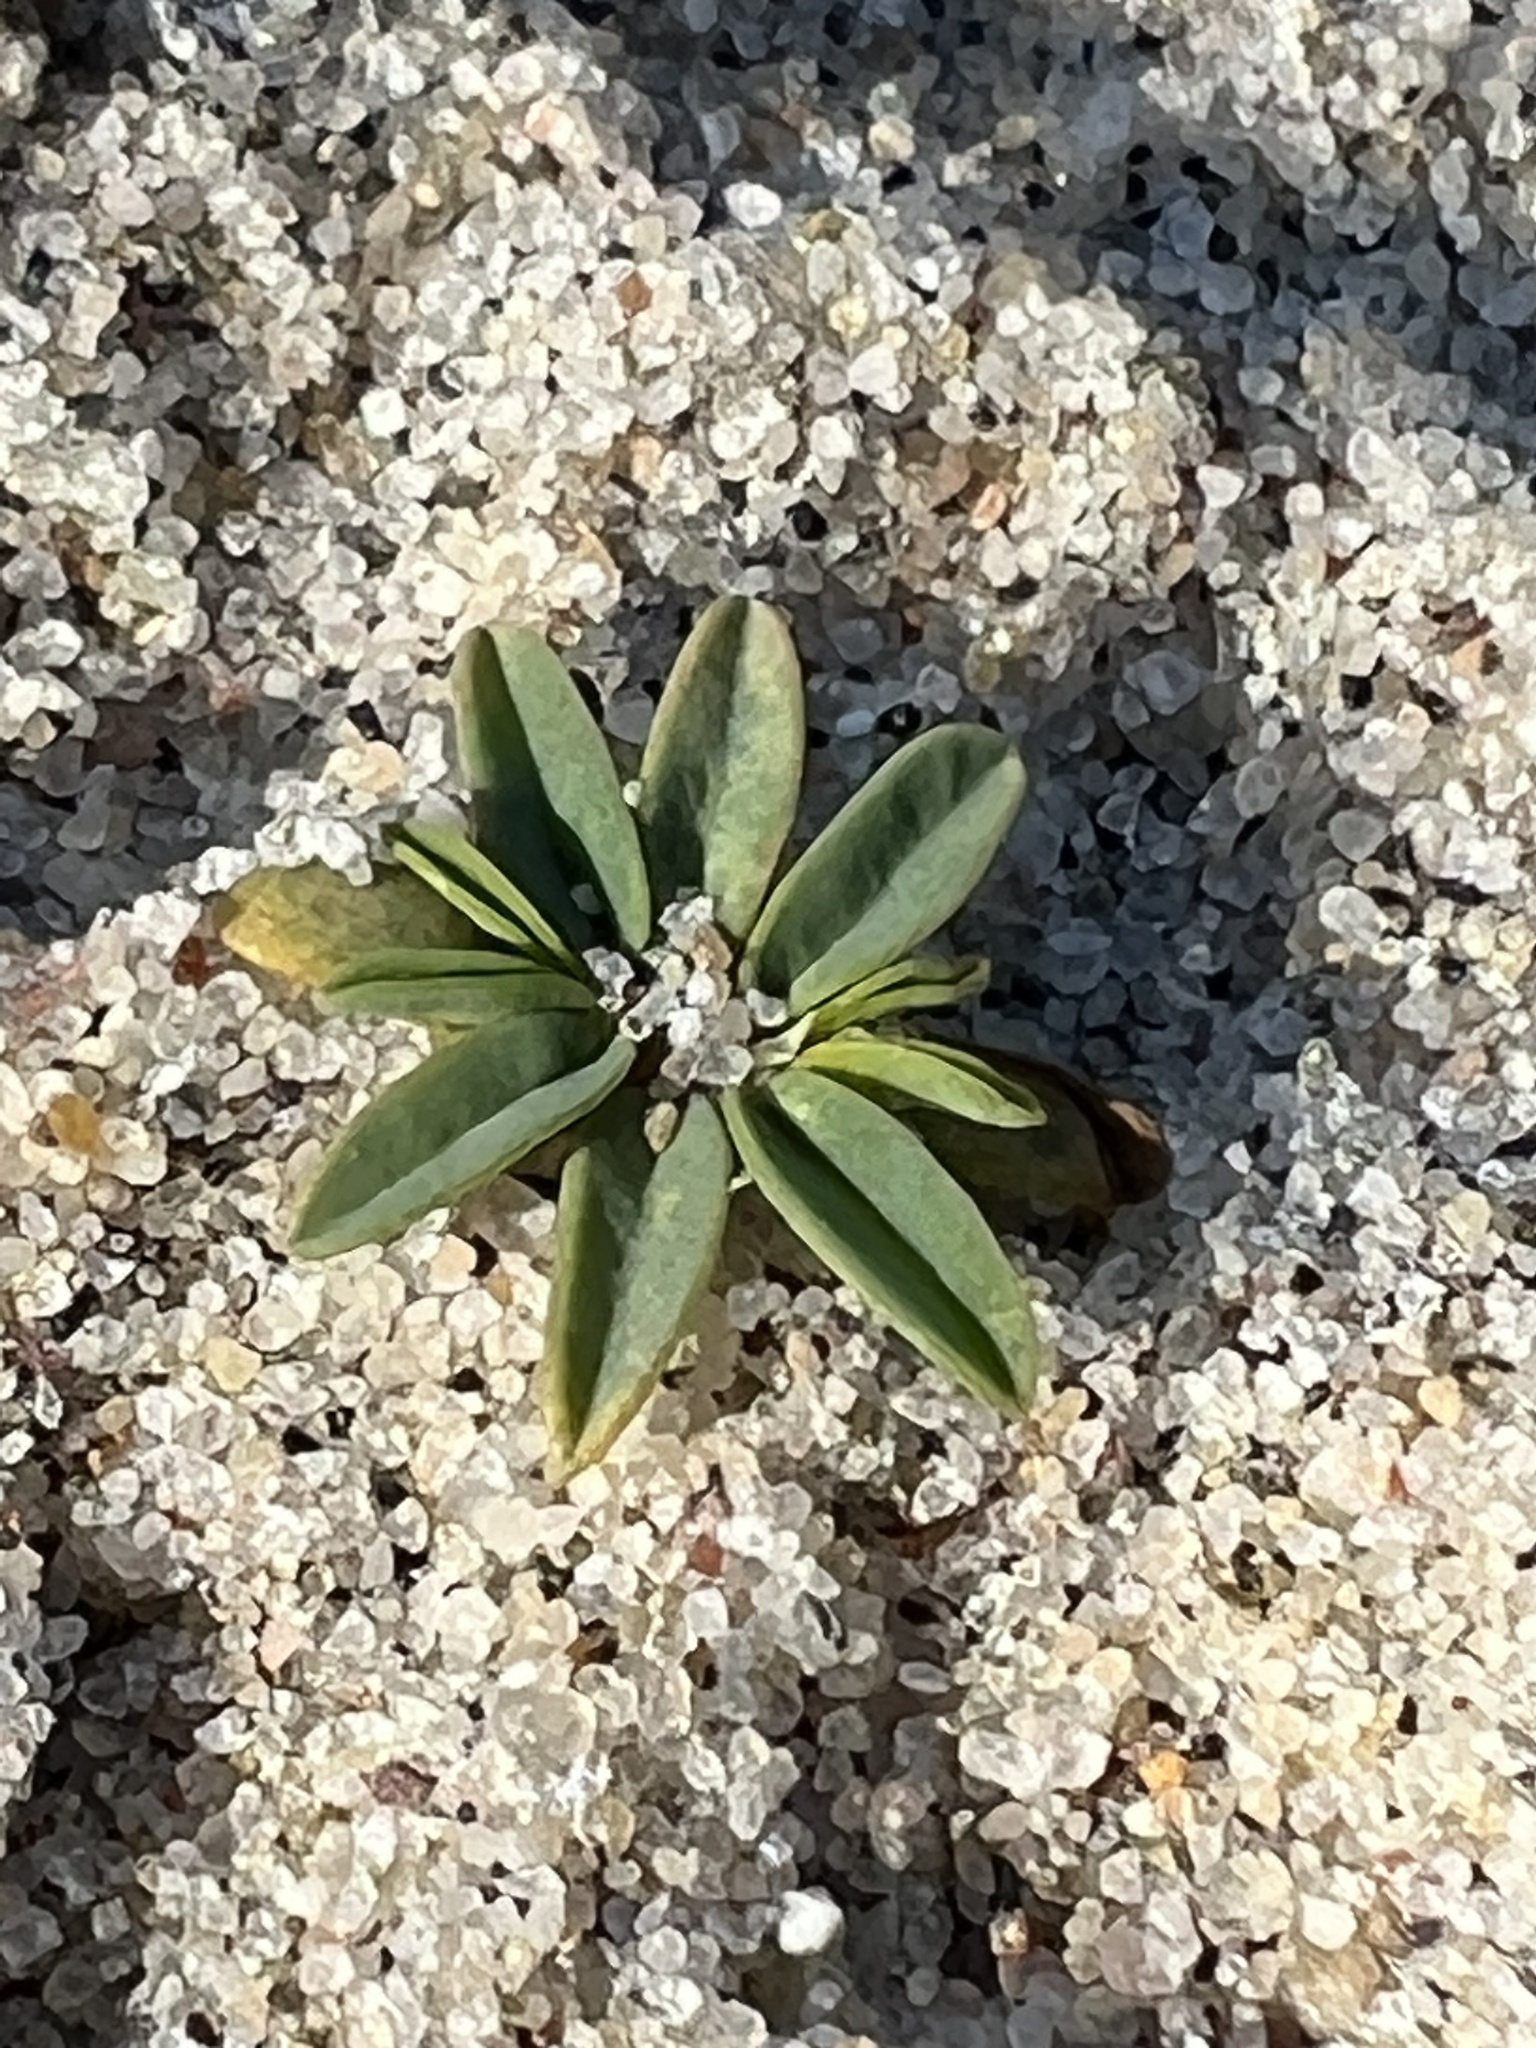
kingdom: Plantae
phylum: Tracheophyta
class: Magnoliopsida
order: Malpighiales
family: Euphorbiaceae
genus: Euphorbia
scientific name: Euphorbia polygonifolia
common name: Knotweed spurge
